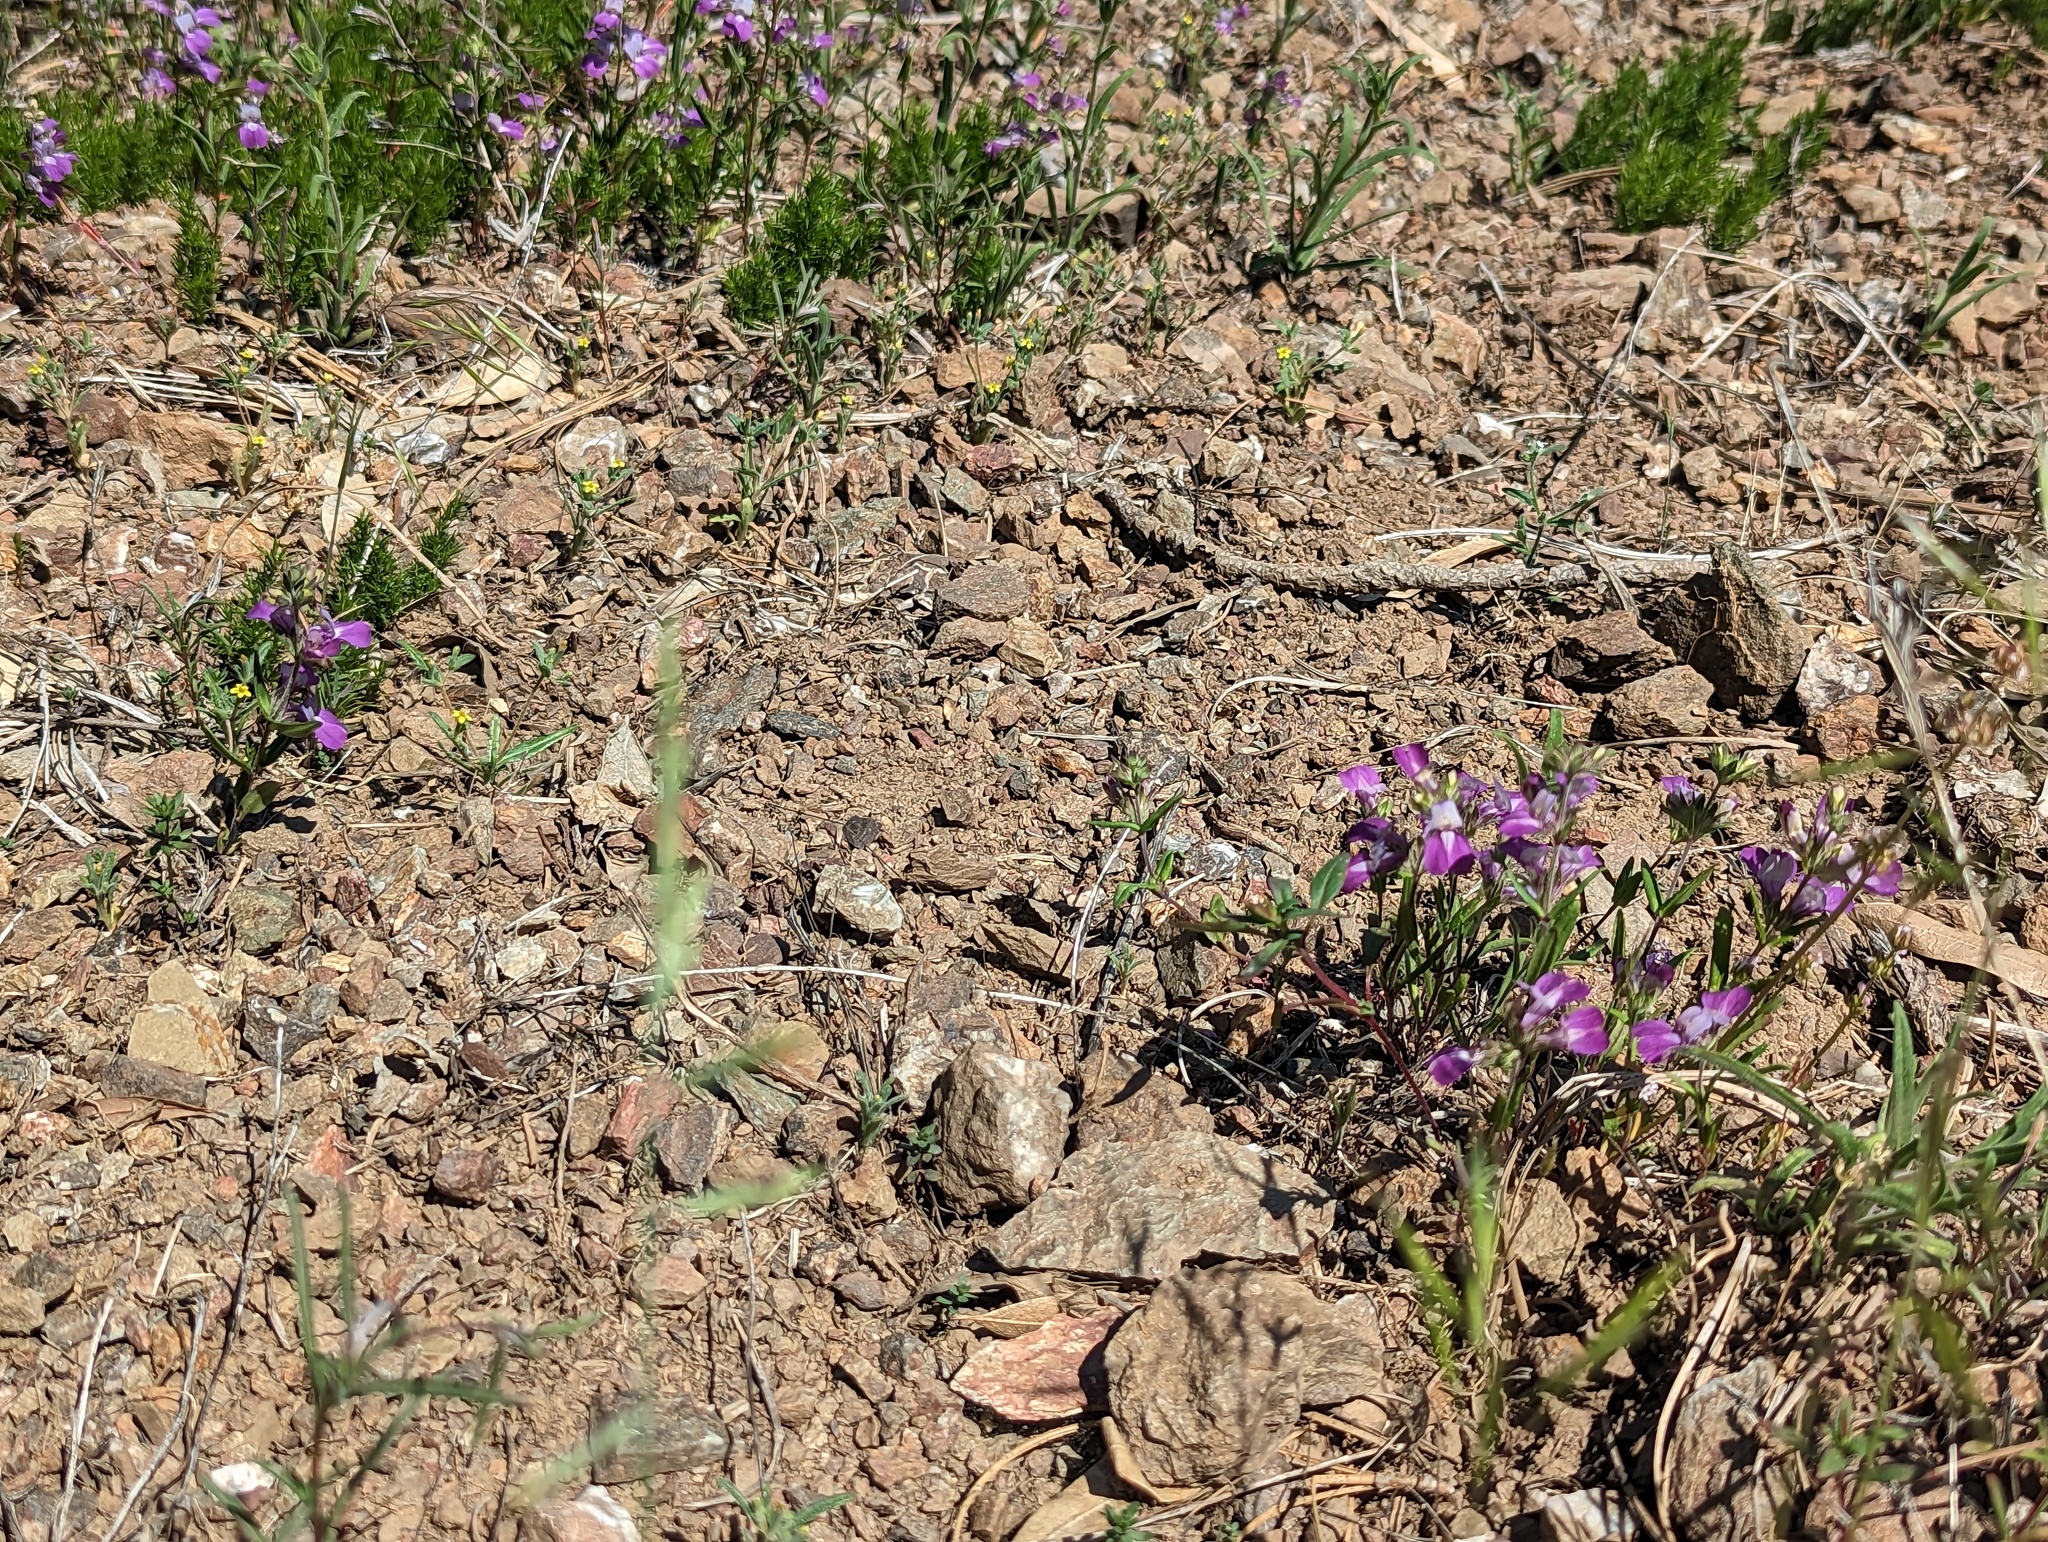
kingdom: Plantae
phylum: Tracheophyta
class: Magnoliopsida
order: Lamiales
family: Plantaginaceae
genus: Collinsia
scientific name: Collinsia heterophylla
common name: Chinese-houses
